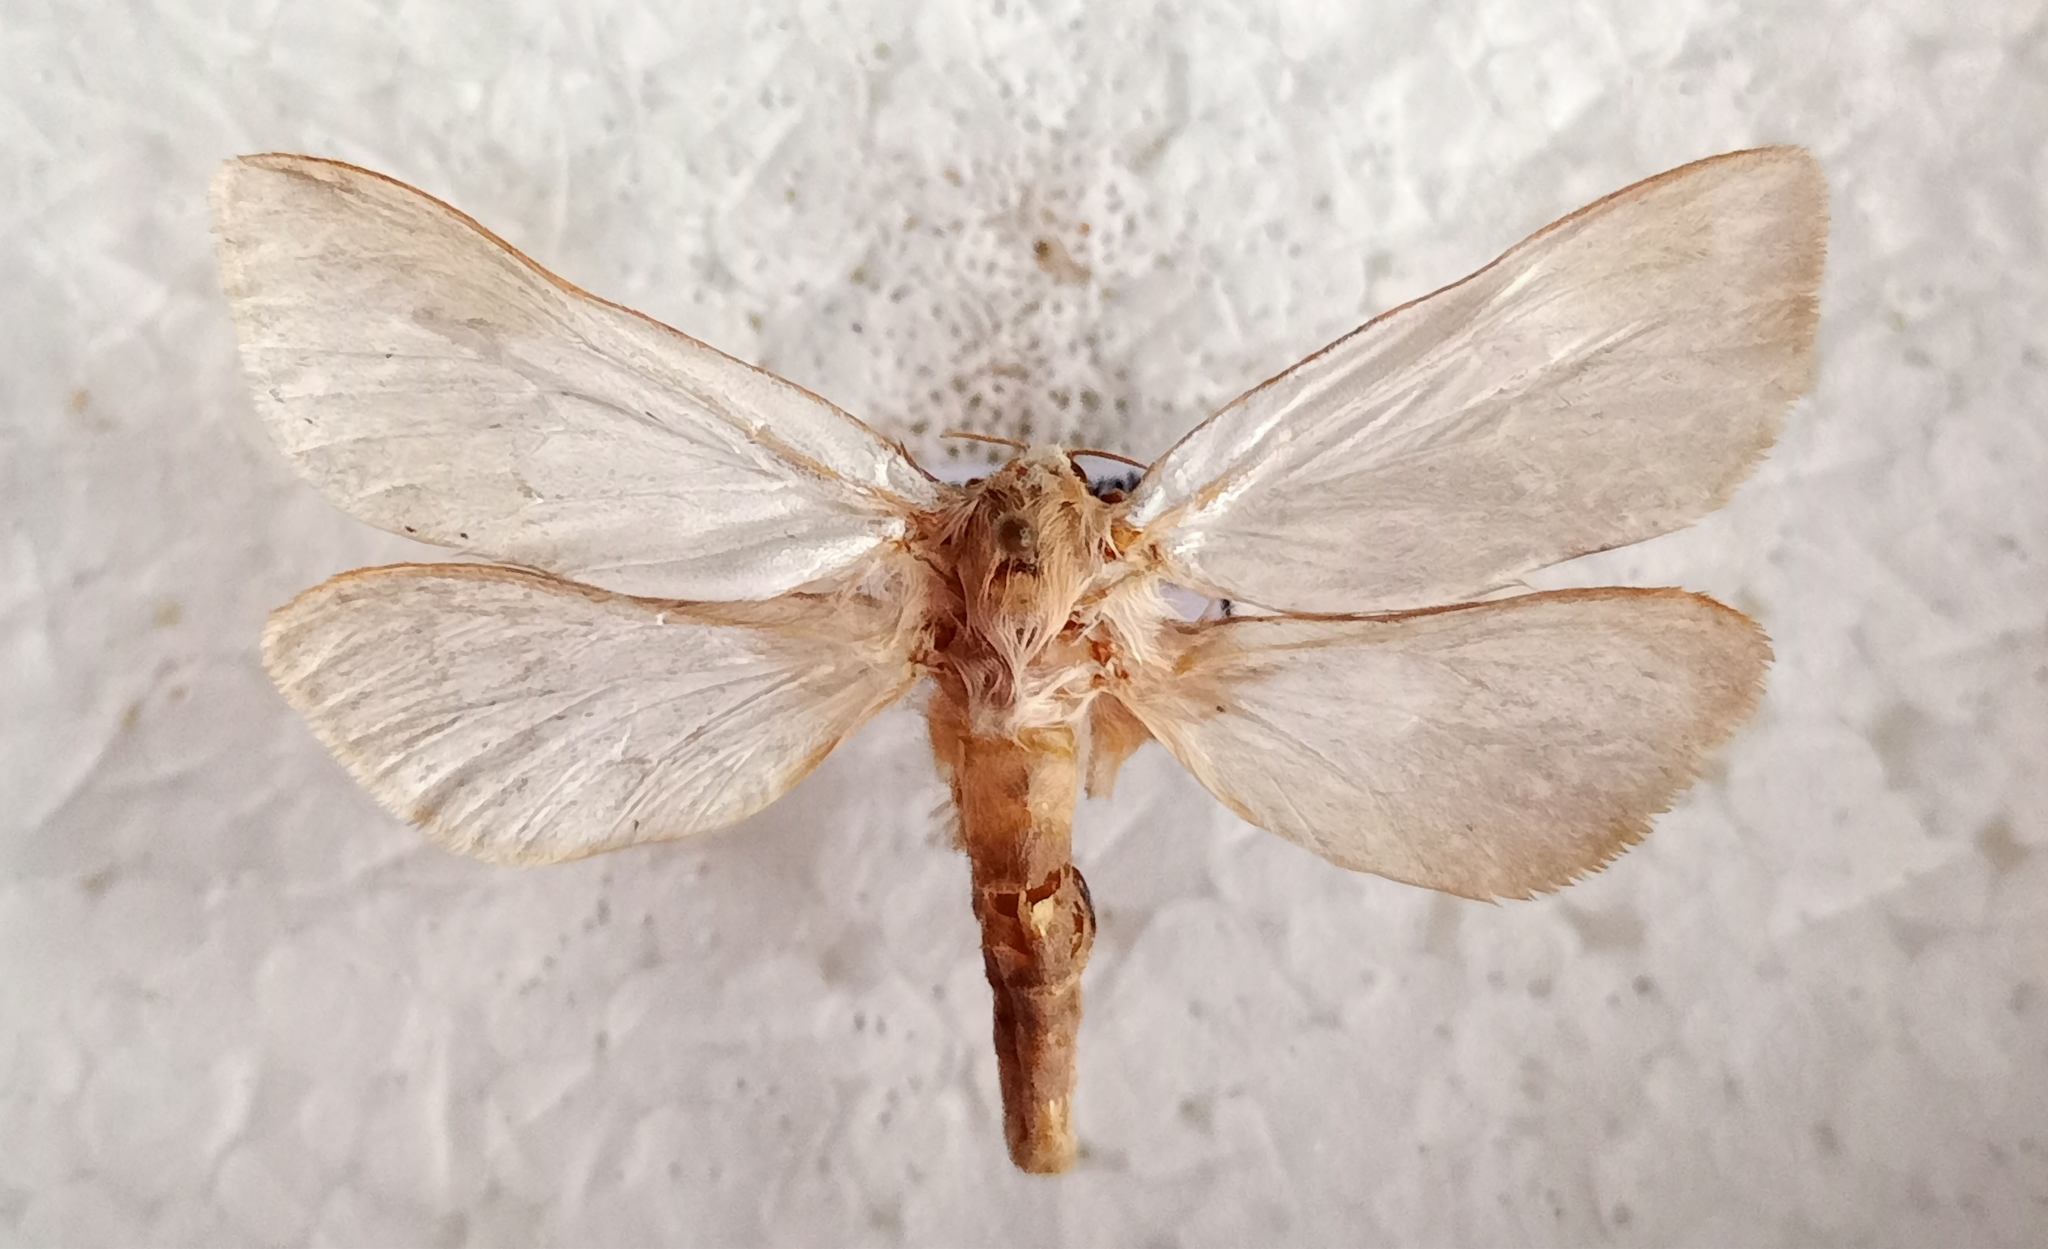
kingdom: Animalia
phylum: Arthropoda
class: Insecta
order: Lepidoptera
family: Hepialidae
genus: Hepialus
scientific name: Hepialus humuli
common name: Ghost moth
